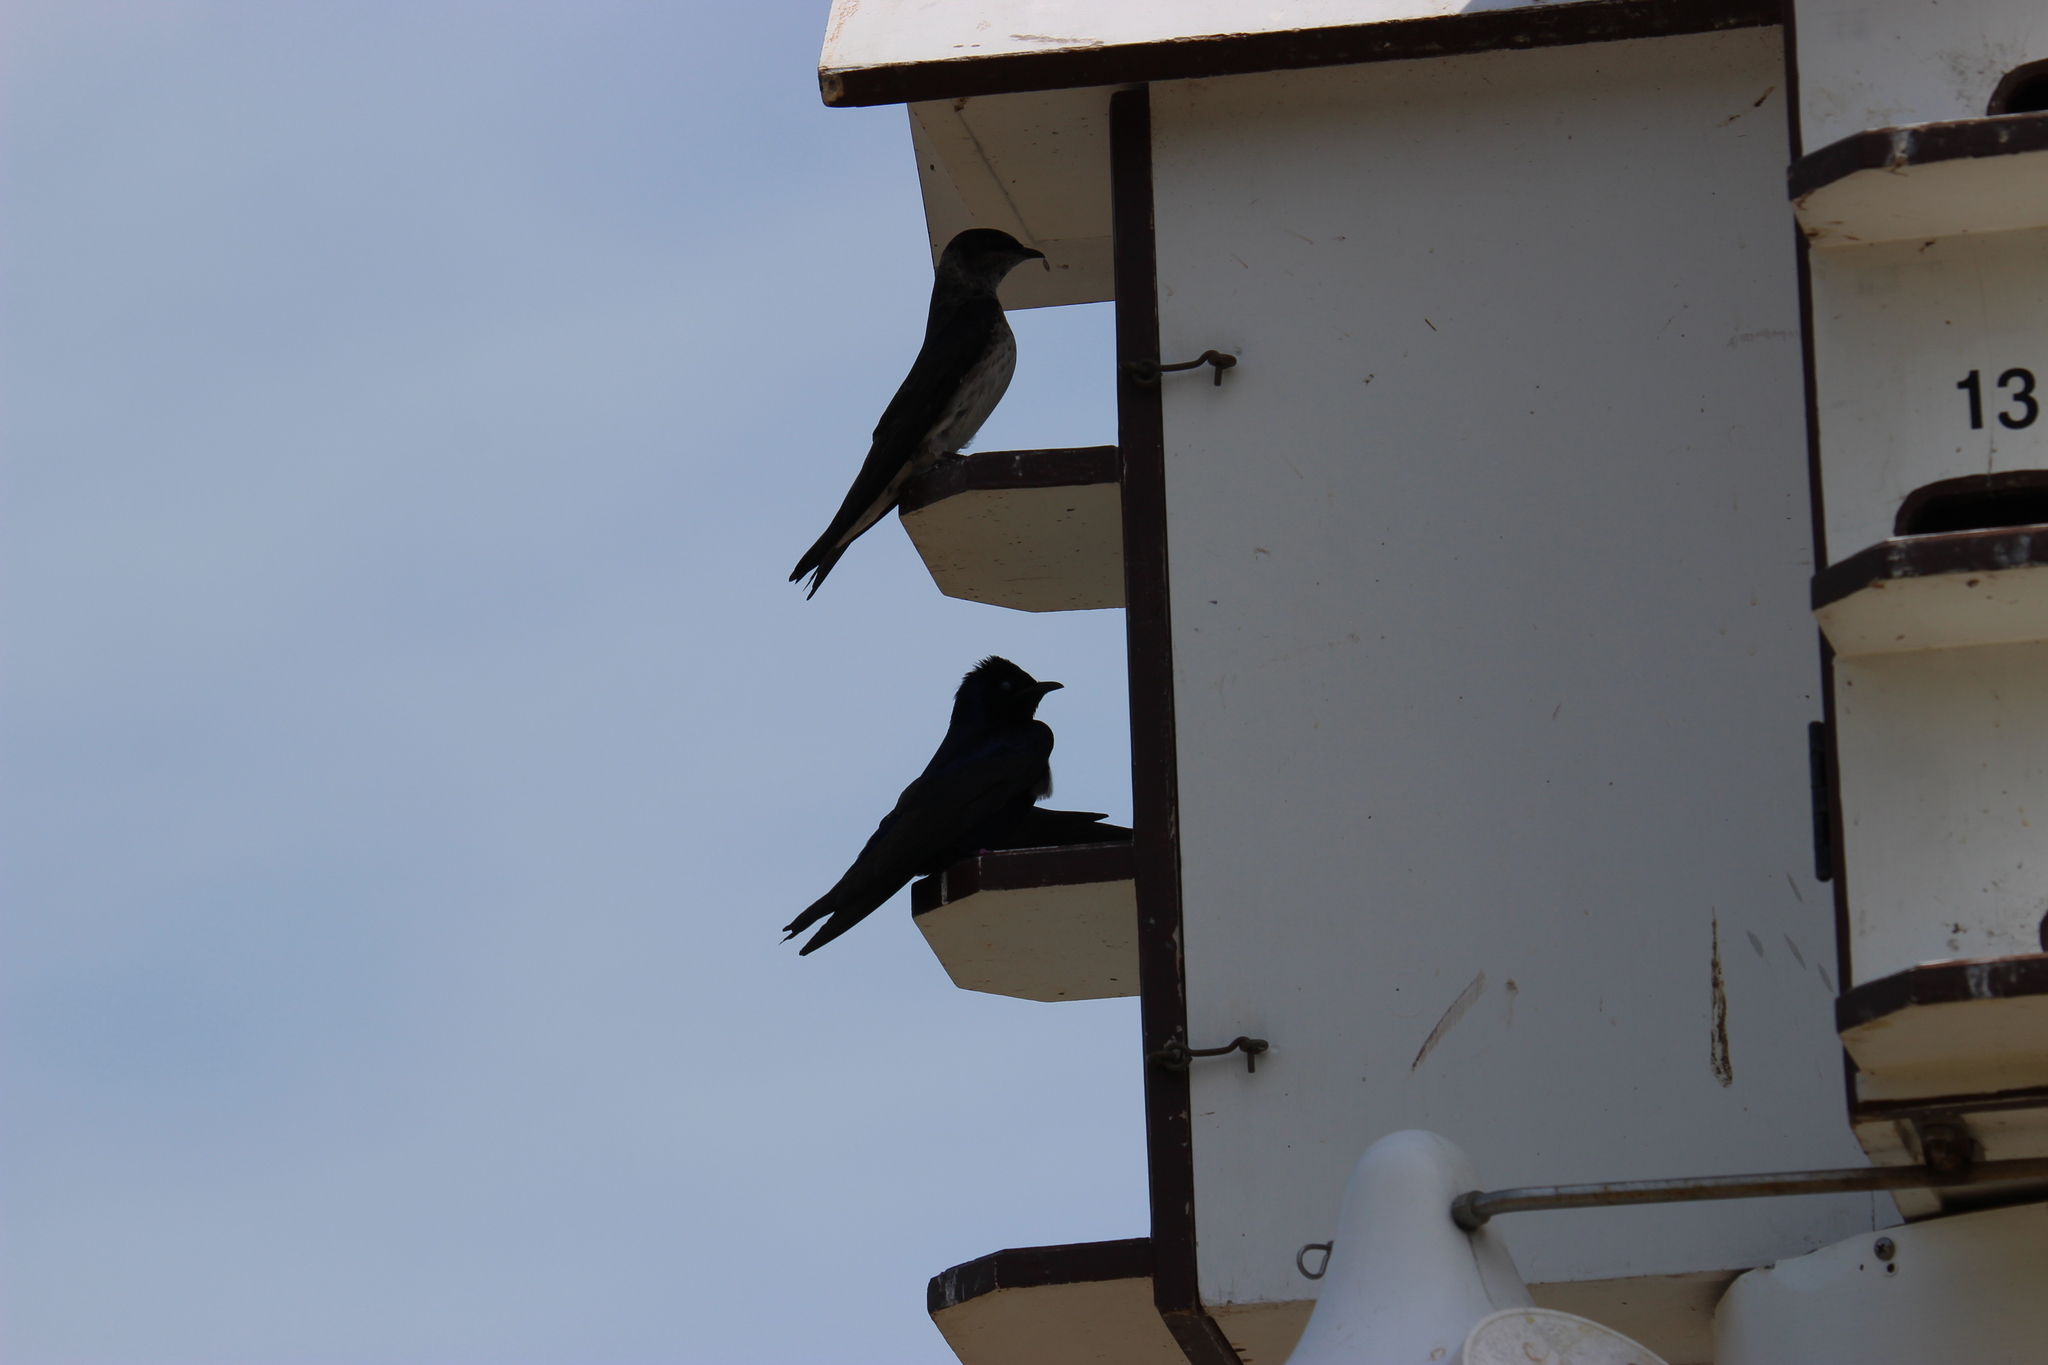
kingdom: Animalia
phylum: Chordata
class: Aves
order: Passeriformes
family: Hirundinidae
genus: Progne
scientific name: Progne subis
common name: Purple martin
